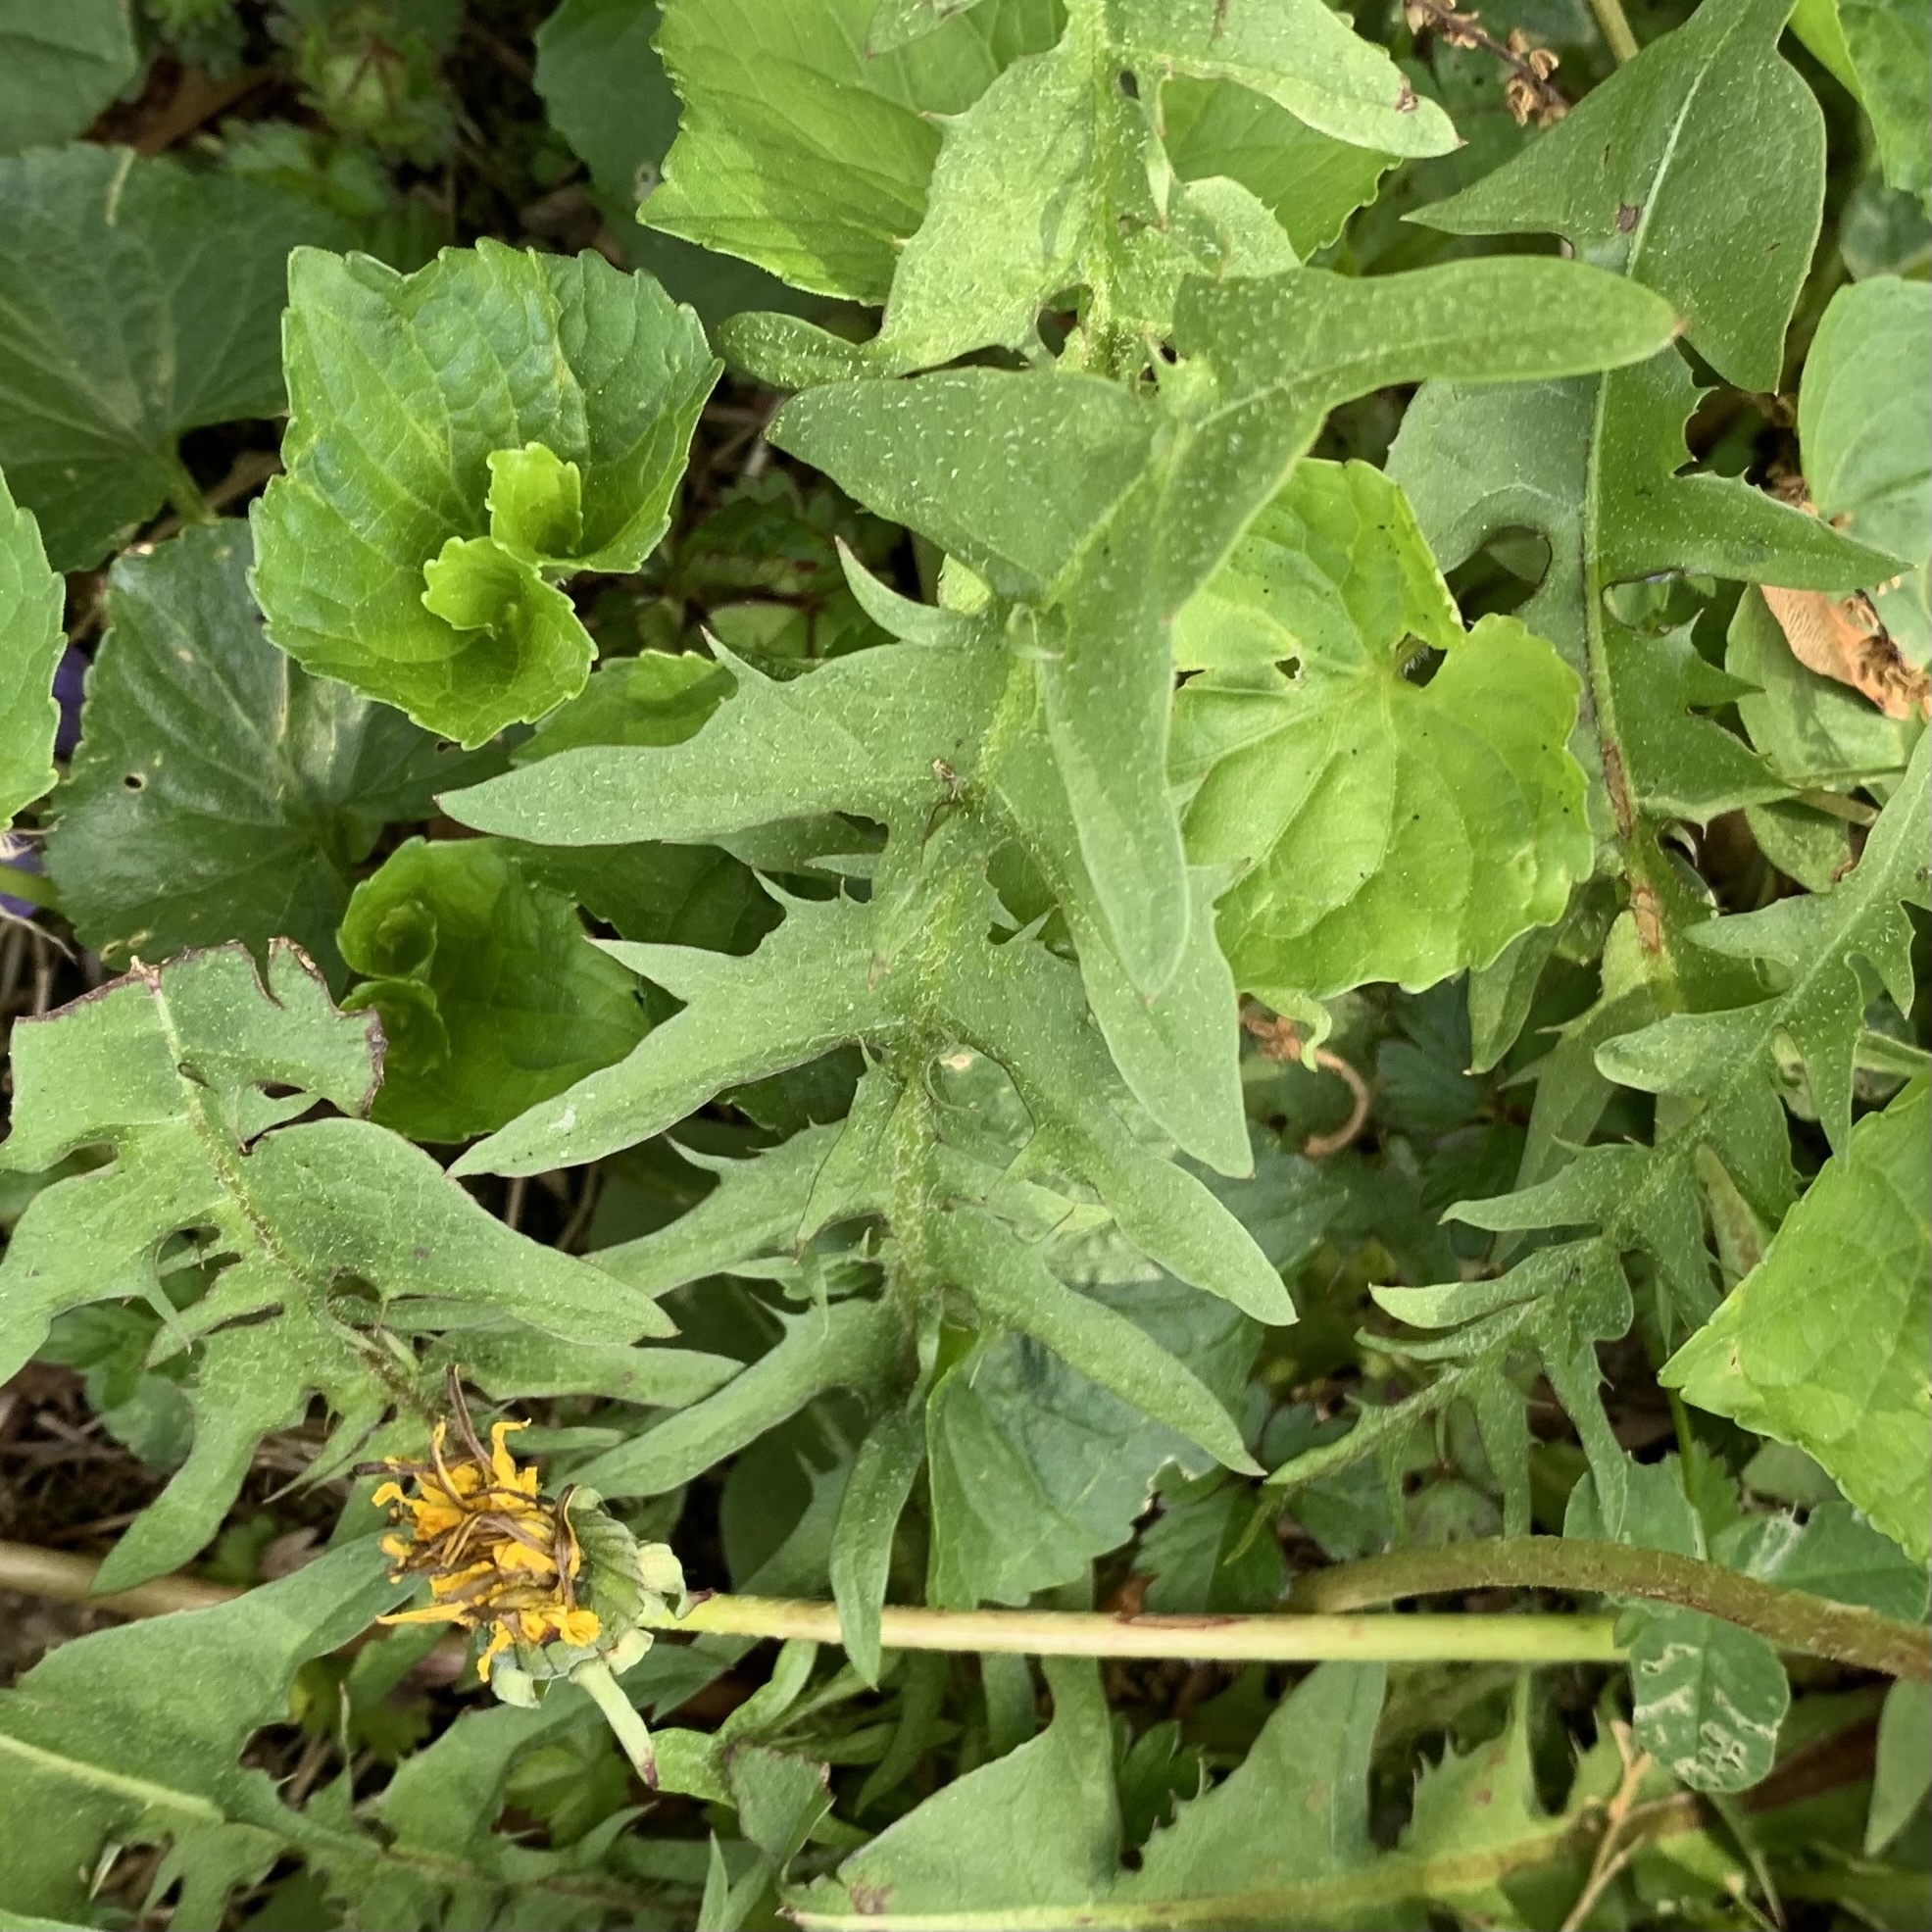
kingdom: Plantae
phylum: Tracheophyta
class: Magnoliopsida
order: Asterales
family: Asteraceae
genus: Taraxacum
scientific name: Taraxacum officinale
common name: Common dandelion
